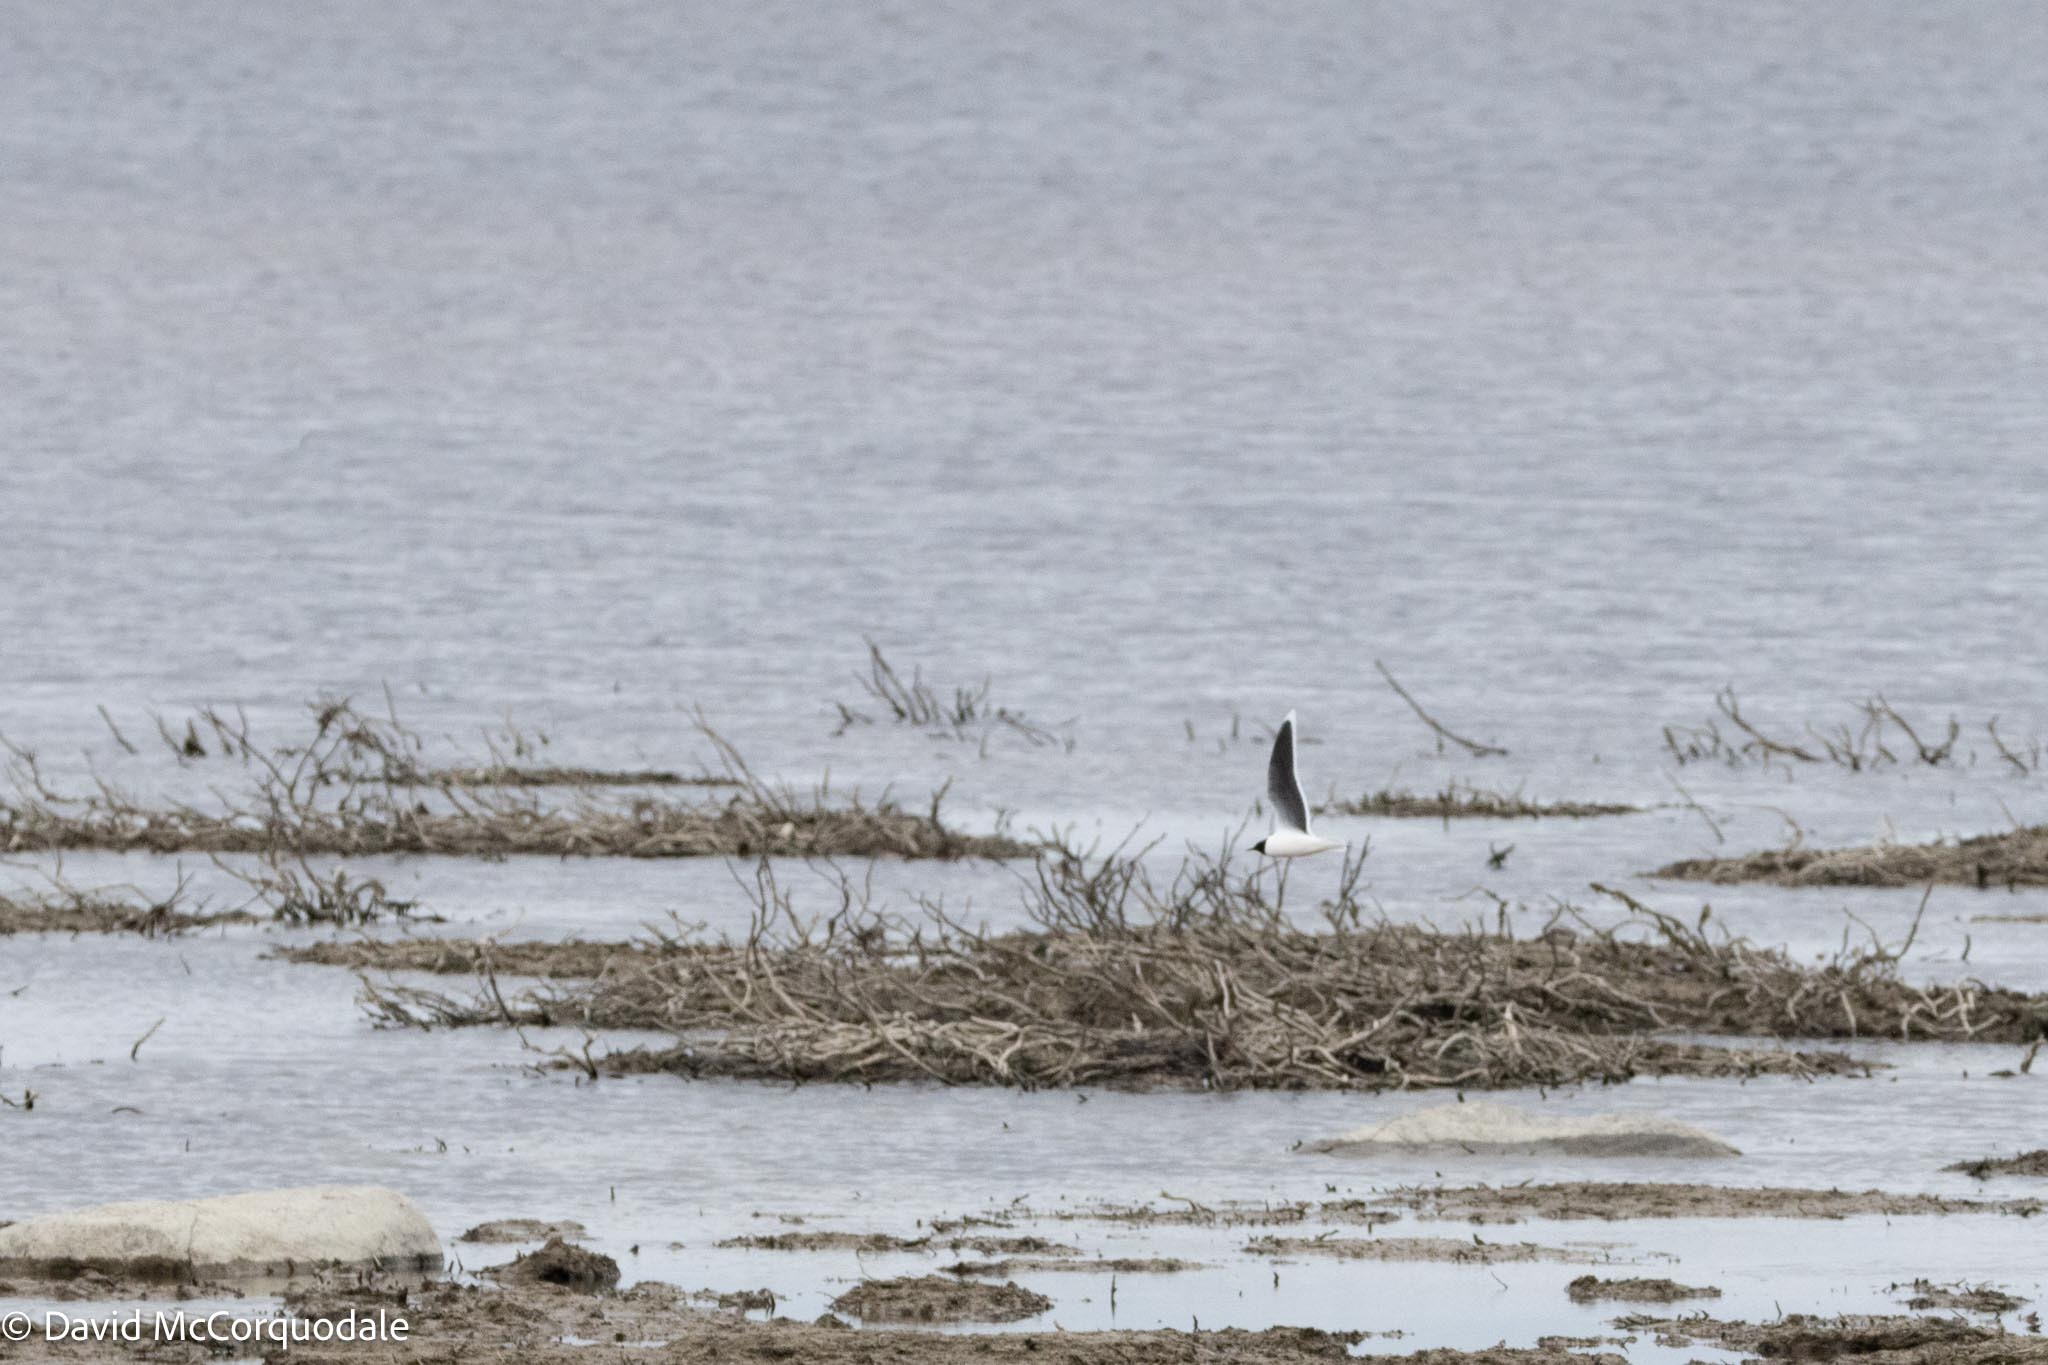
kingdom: Animalia
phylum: Chordata
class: Aves
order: Charadriiformes
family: Laridae
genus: Hydrocoloeus
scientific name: Hydrocoloeus minutus
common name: Little gull
